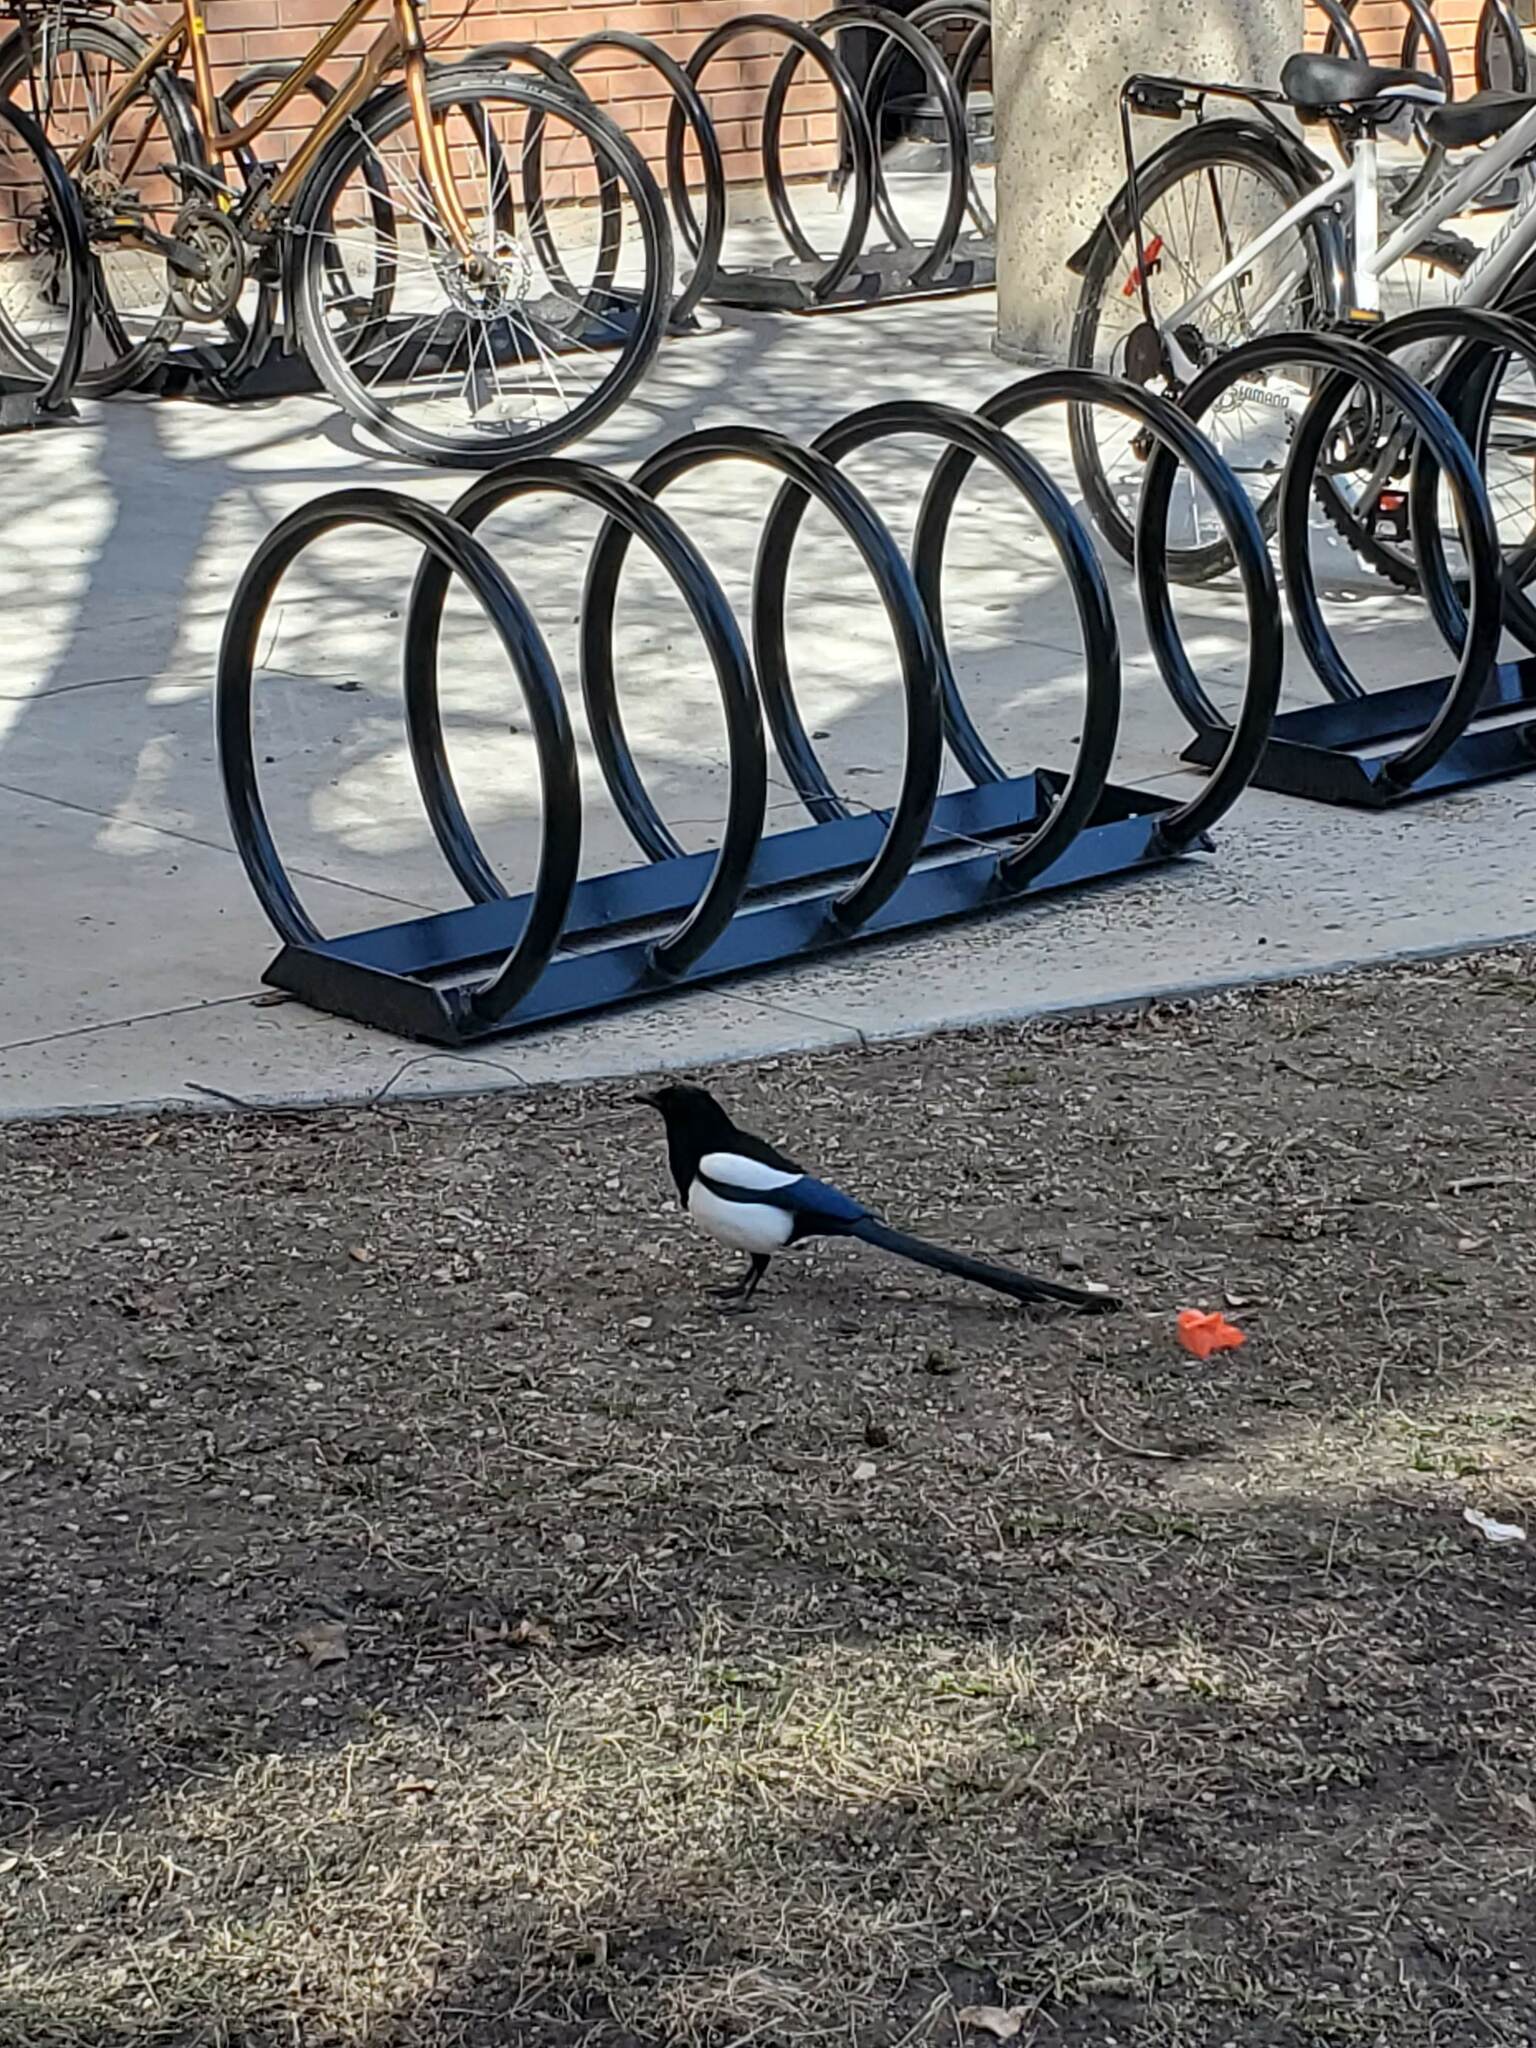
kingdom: Animalia
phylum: Chordata
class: Aves
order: Passeriformes
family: Corvidae
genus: Pica
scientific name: Pica hudsonia
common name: Black-billed magpie
